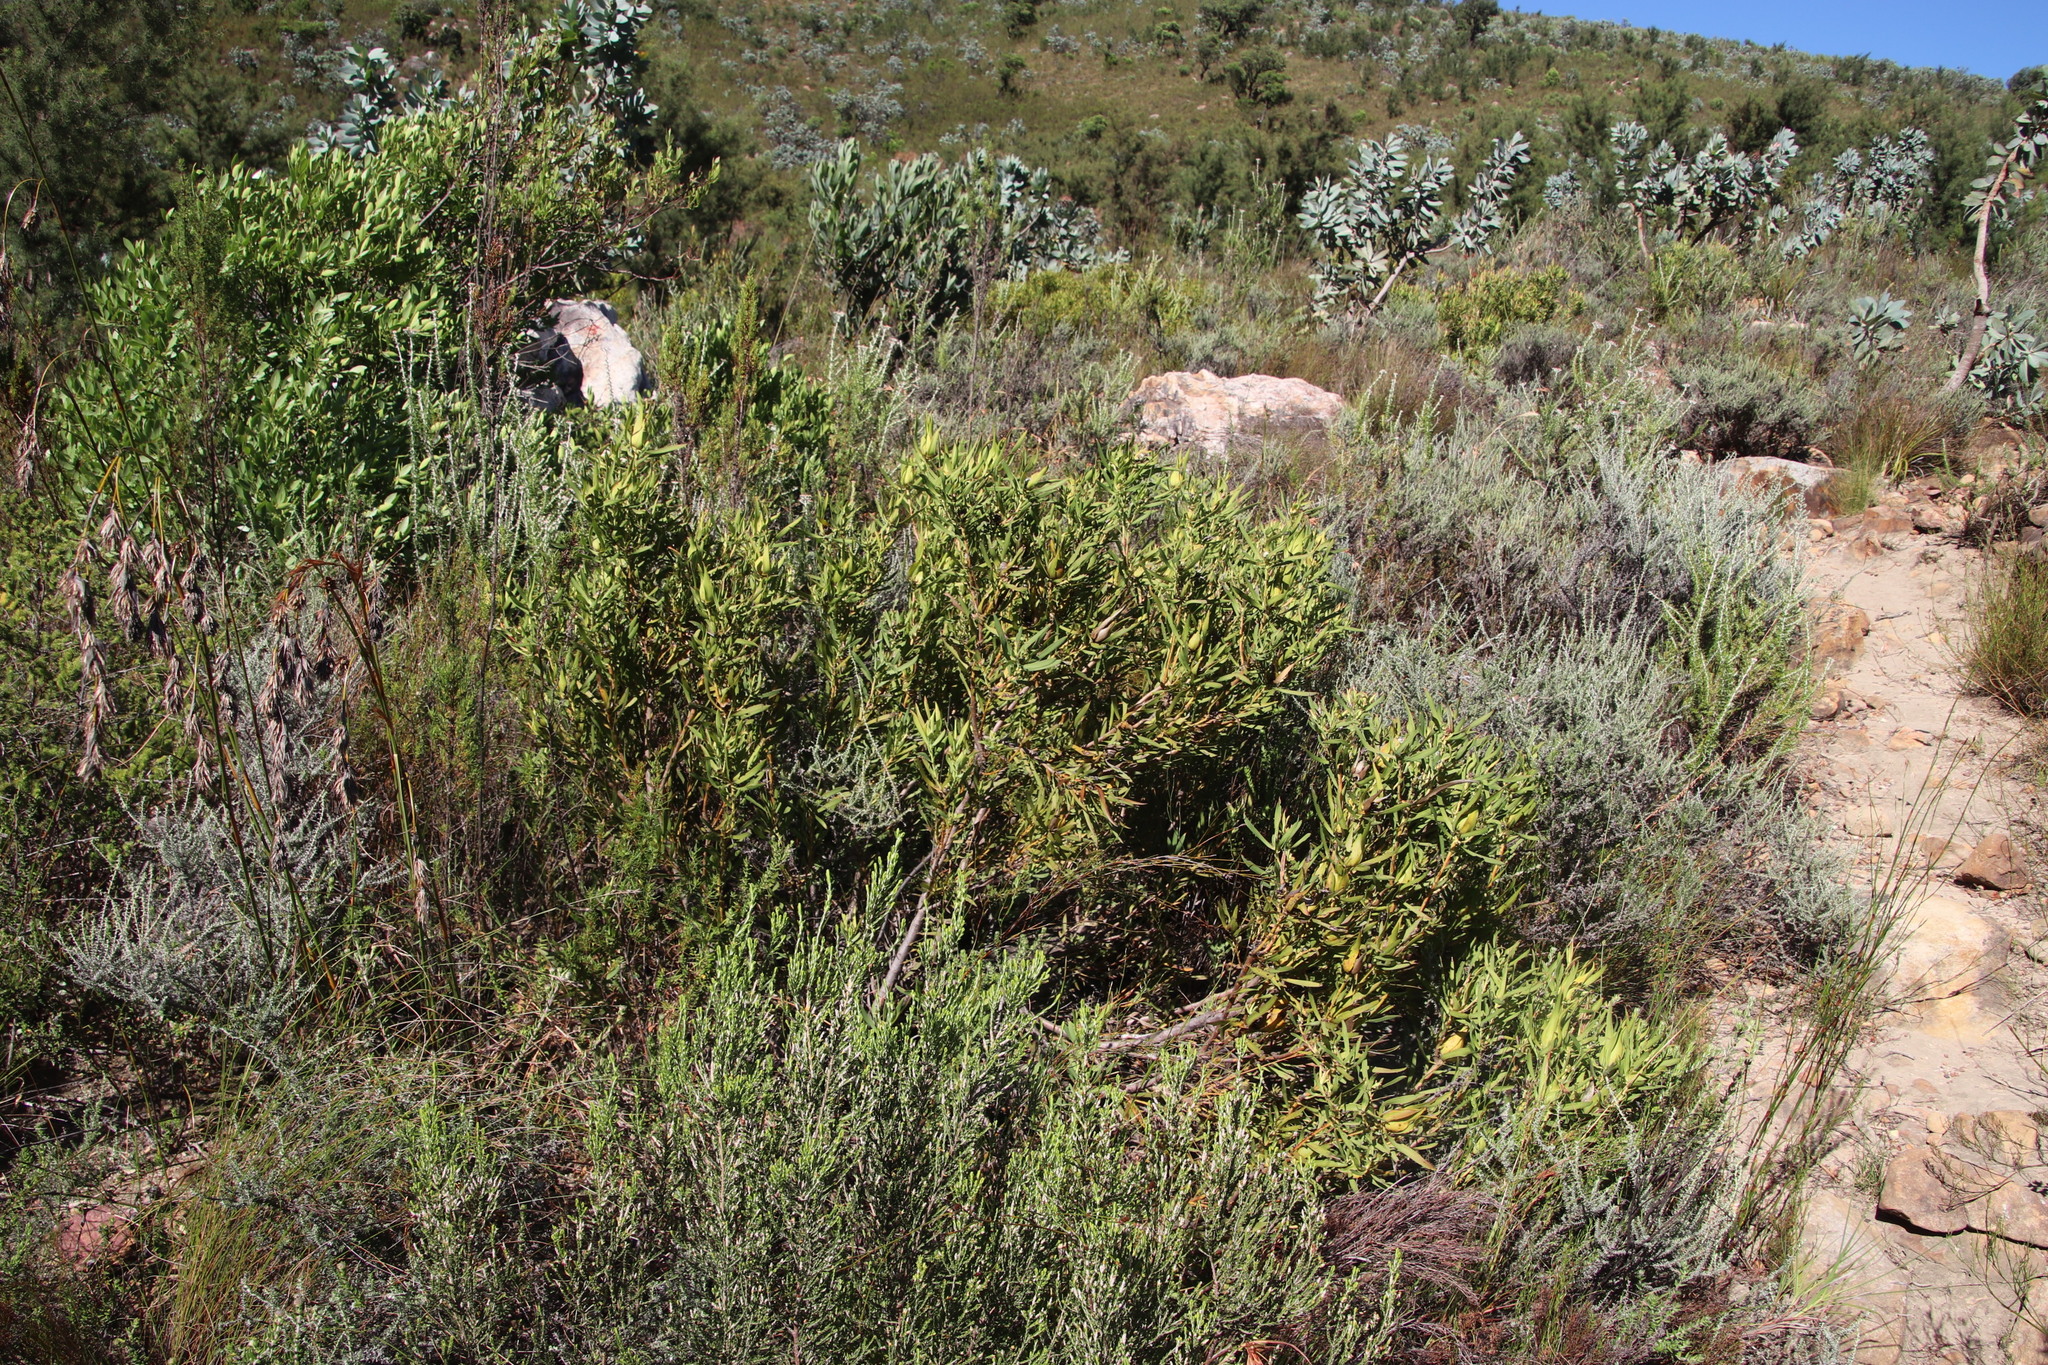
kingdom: Plantae
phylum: Tracheophyta
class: Magnoliopsida
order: Proteales
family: Proteaceae
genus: Leucadendron
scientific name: Leucadendron salignum
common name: Common sunshine conebush
